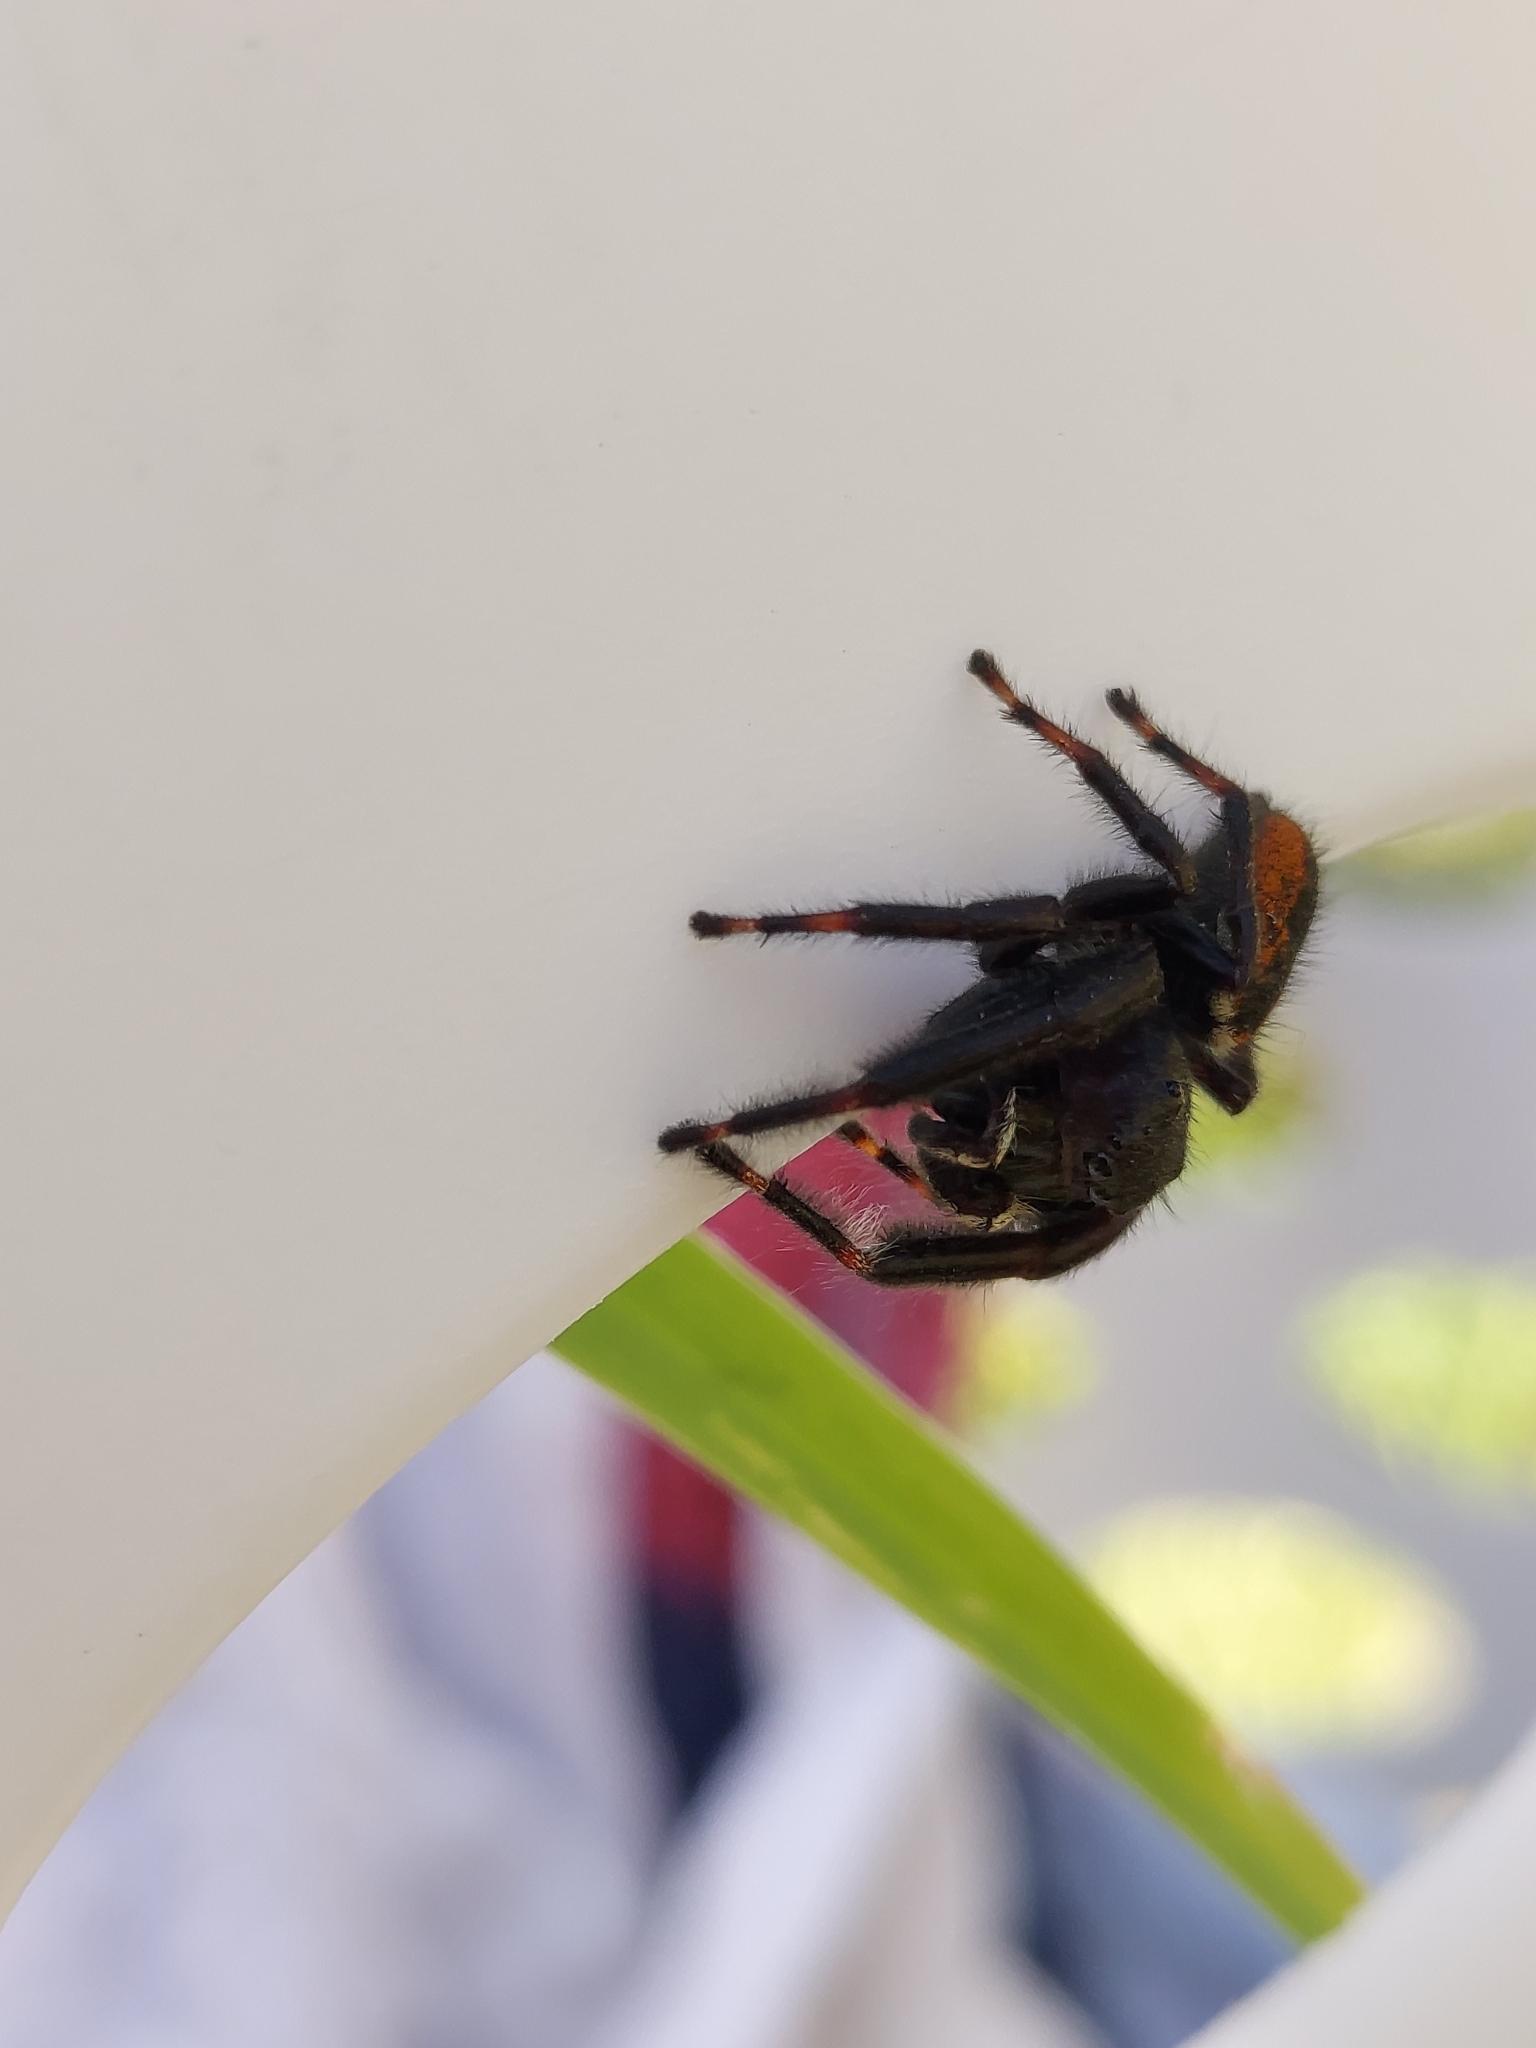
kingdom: Animalia
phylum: Arthropoda
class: Arachnida
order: Araneae
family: Salticidae
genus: Phidippus
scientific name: Phidippus clarus
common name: Brilliant jumping spider
